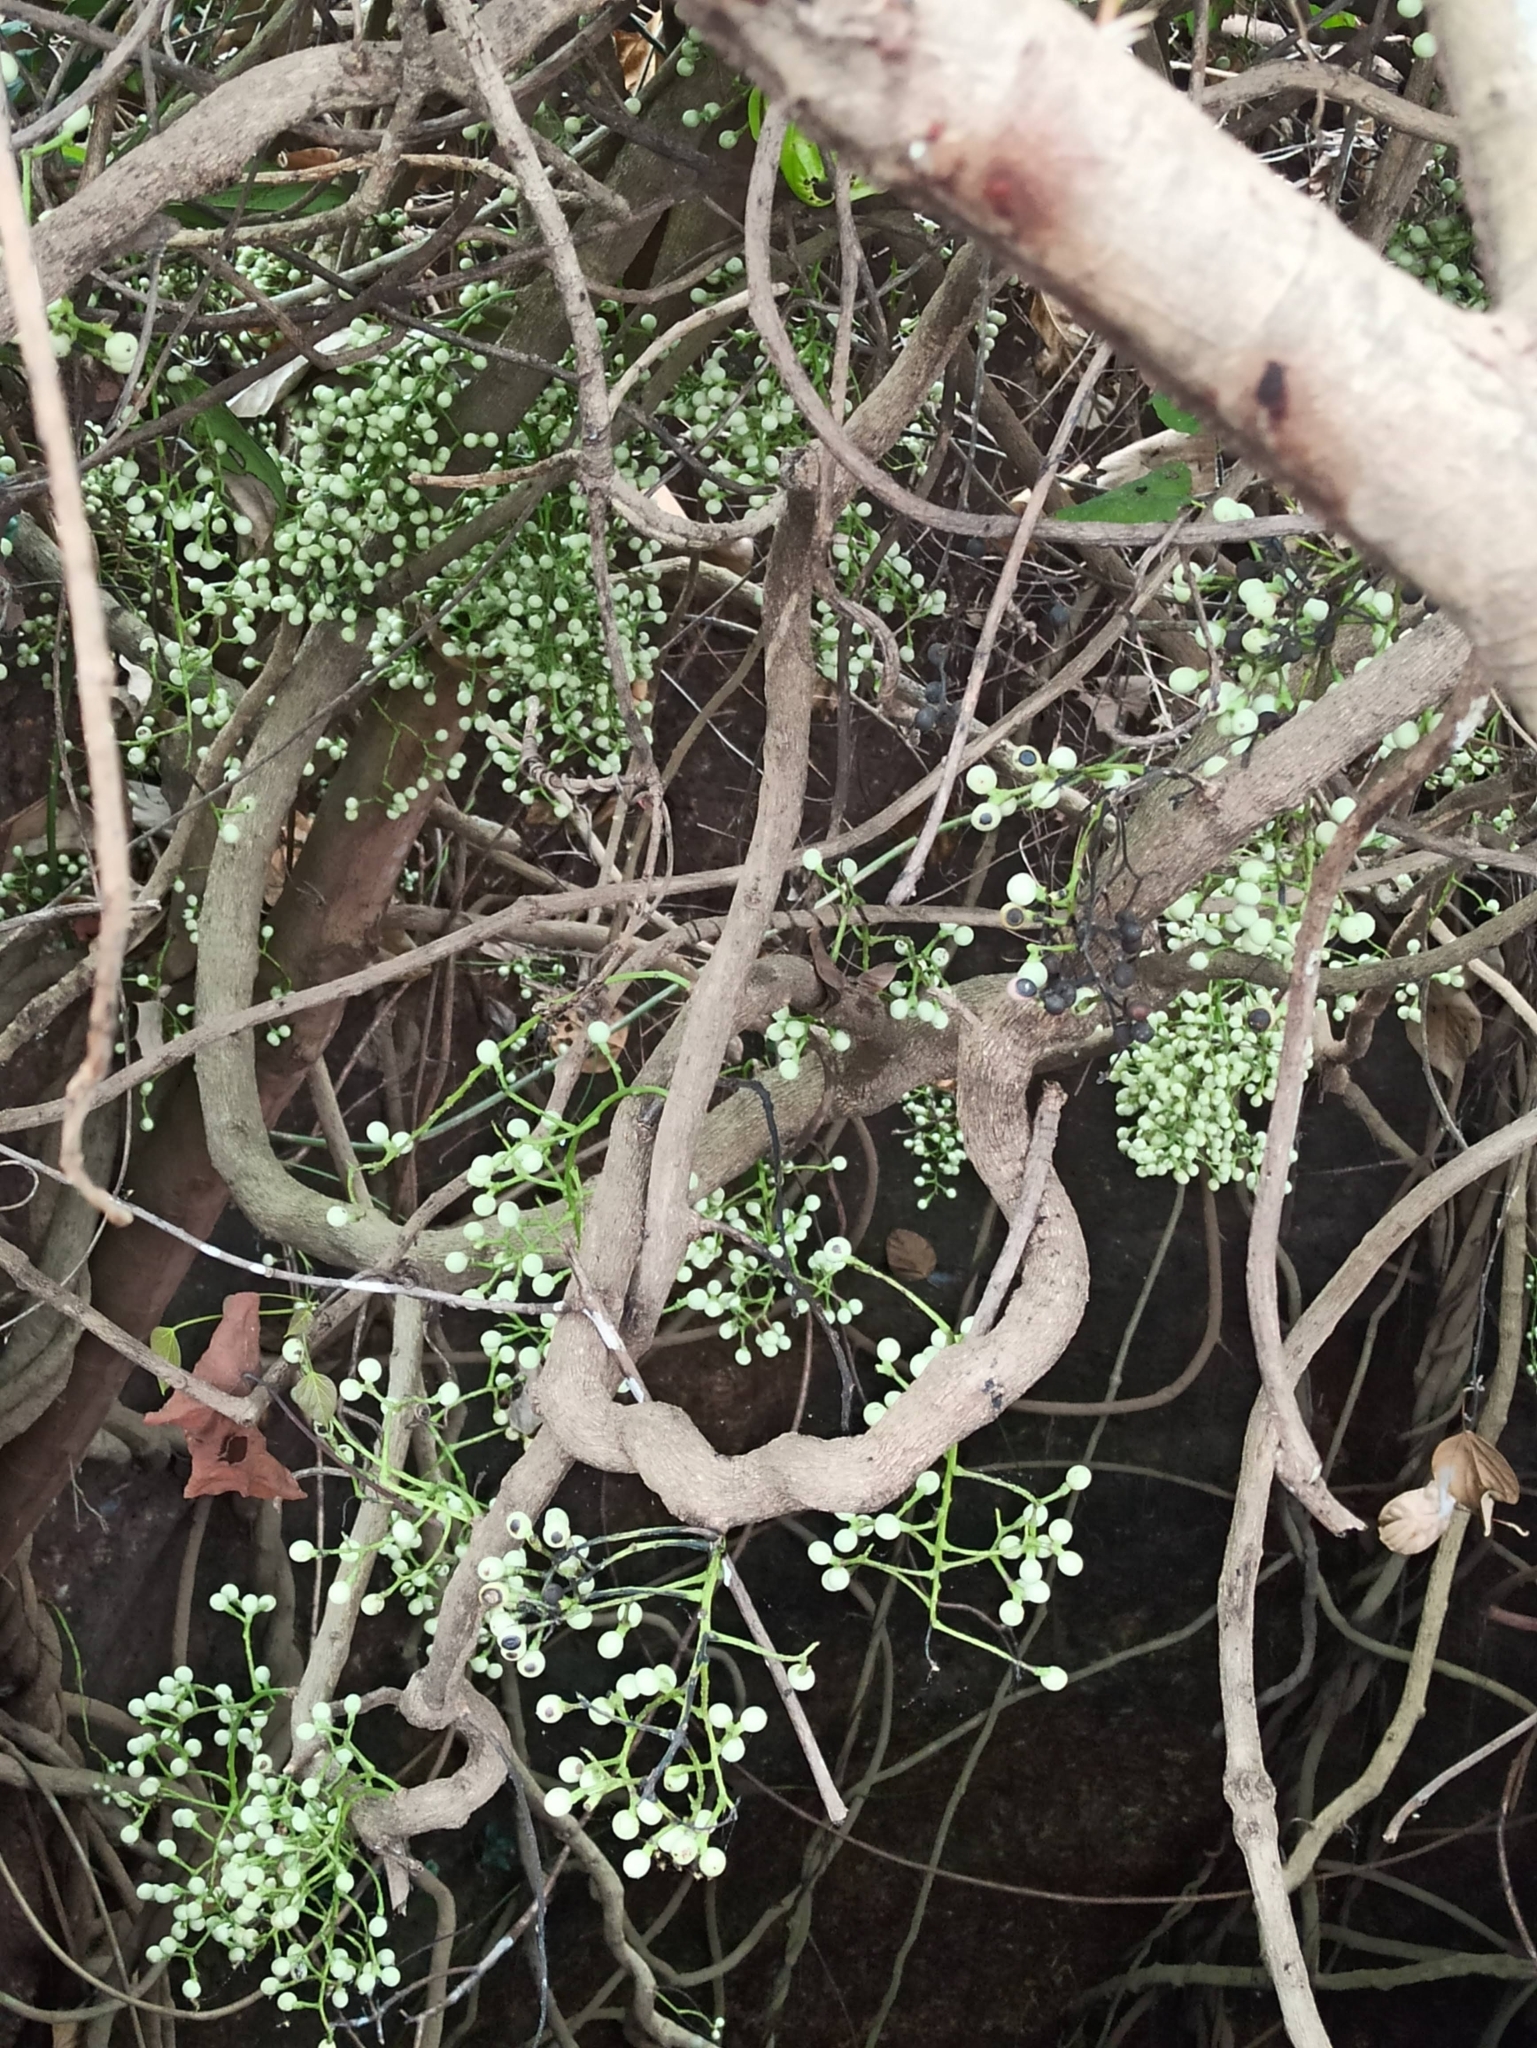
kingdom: Plantae
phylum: Tracheophyta
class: Magnoliopsida
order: Ranunculales
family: Menispermaceae
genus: Anamirta
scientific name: Anamirta cocculus
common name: Levantnut
